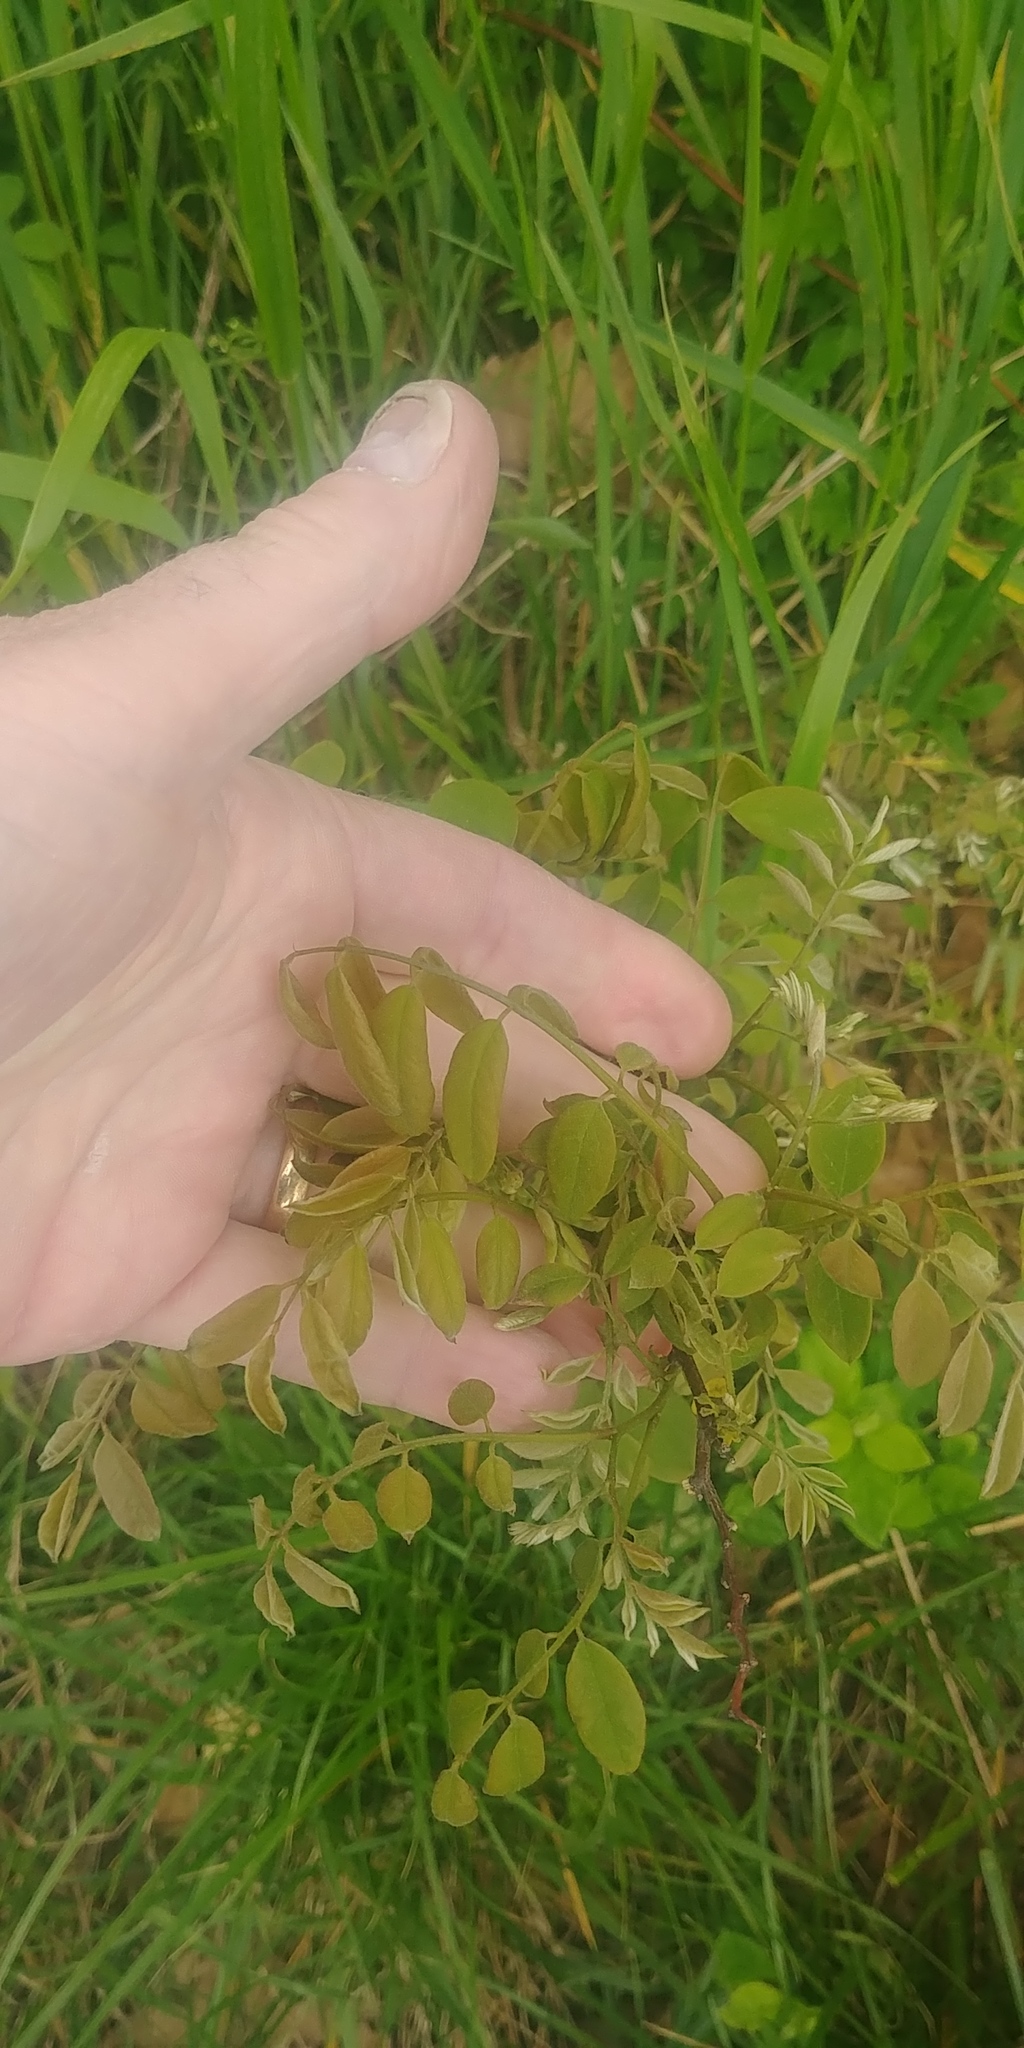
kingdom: Plantae
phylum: Tracheophyta
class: Magnoliopsida
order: Fabales
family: Fabaceae
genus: Robinia
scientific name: Robinia pseudoacacia
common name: Black locust
